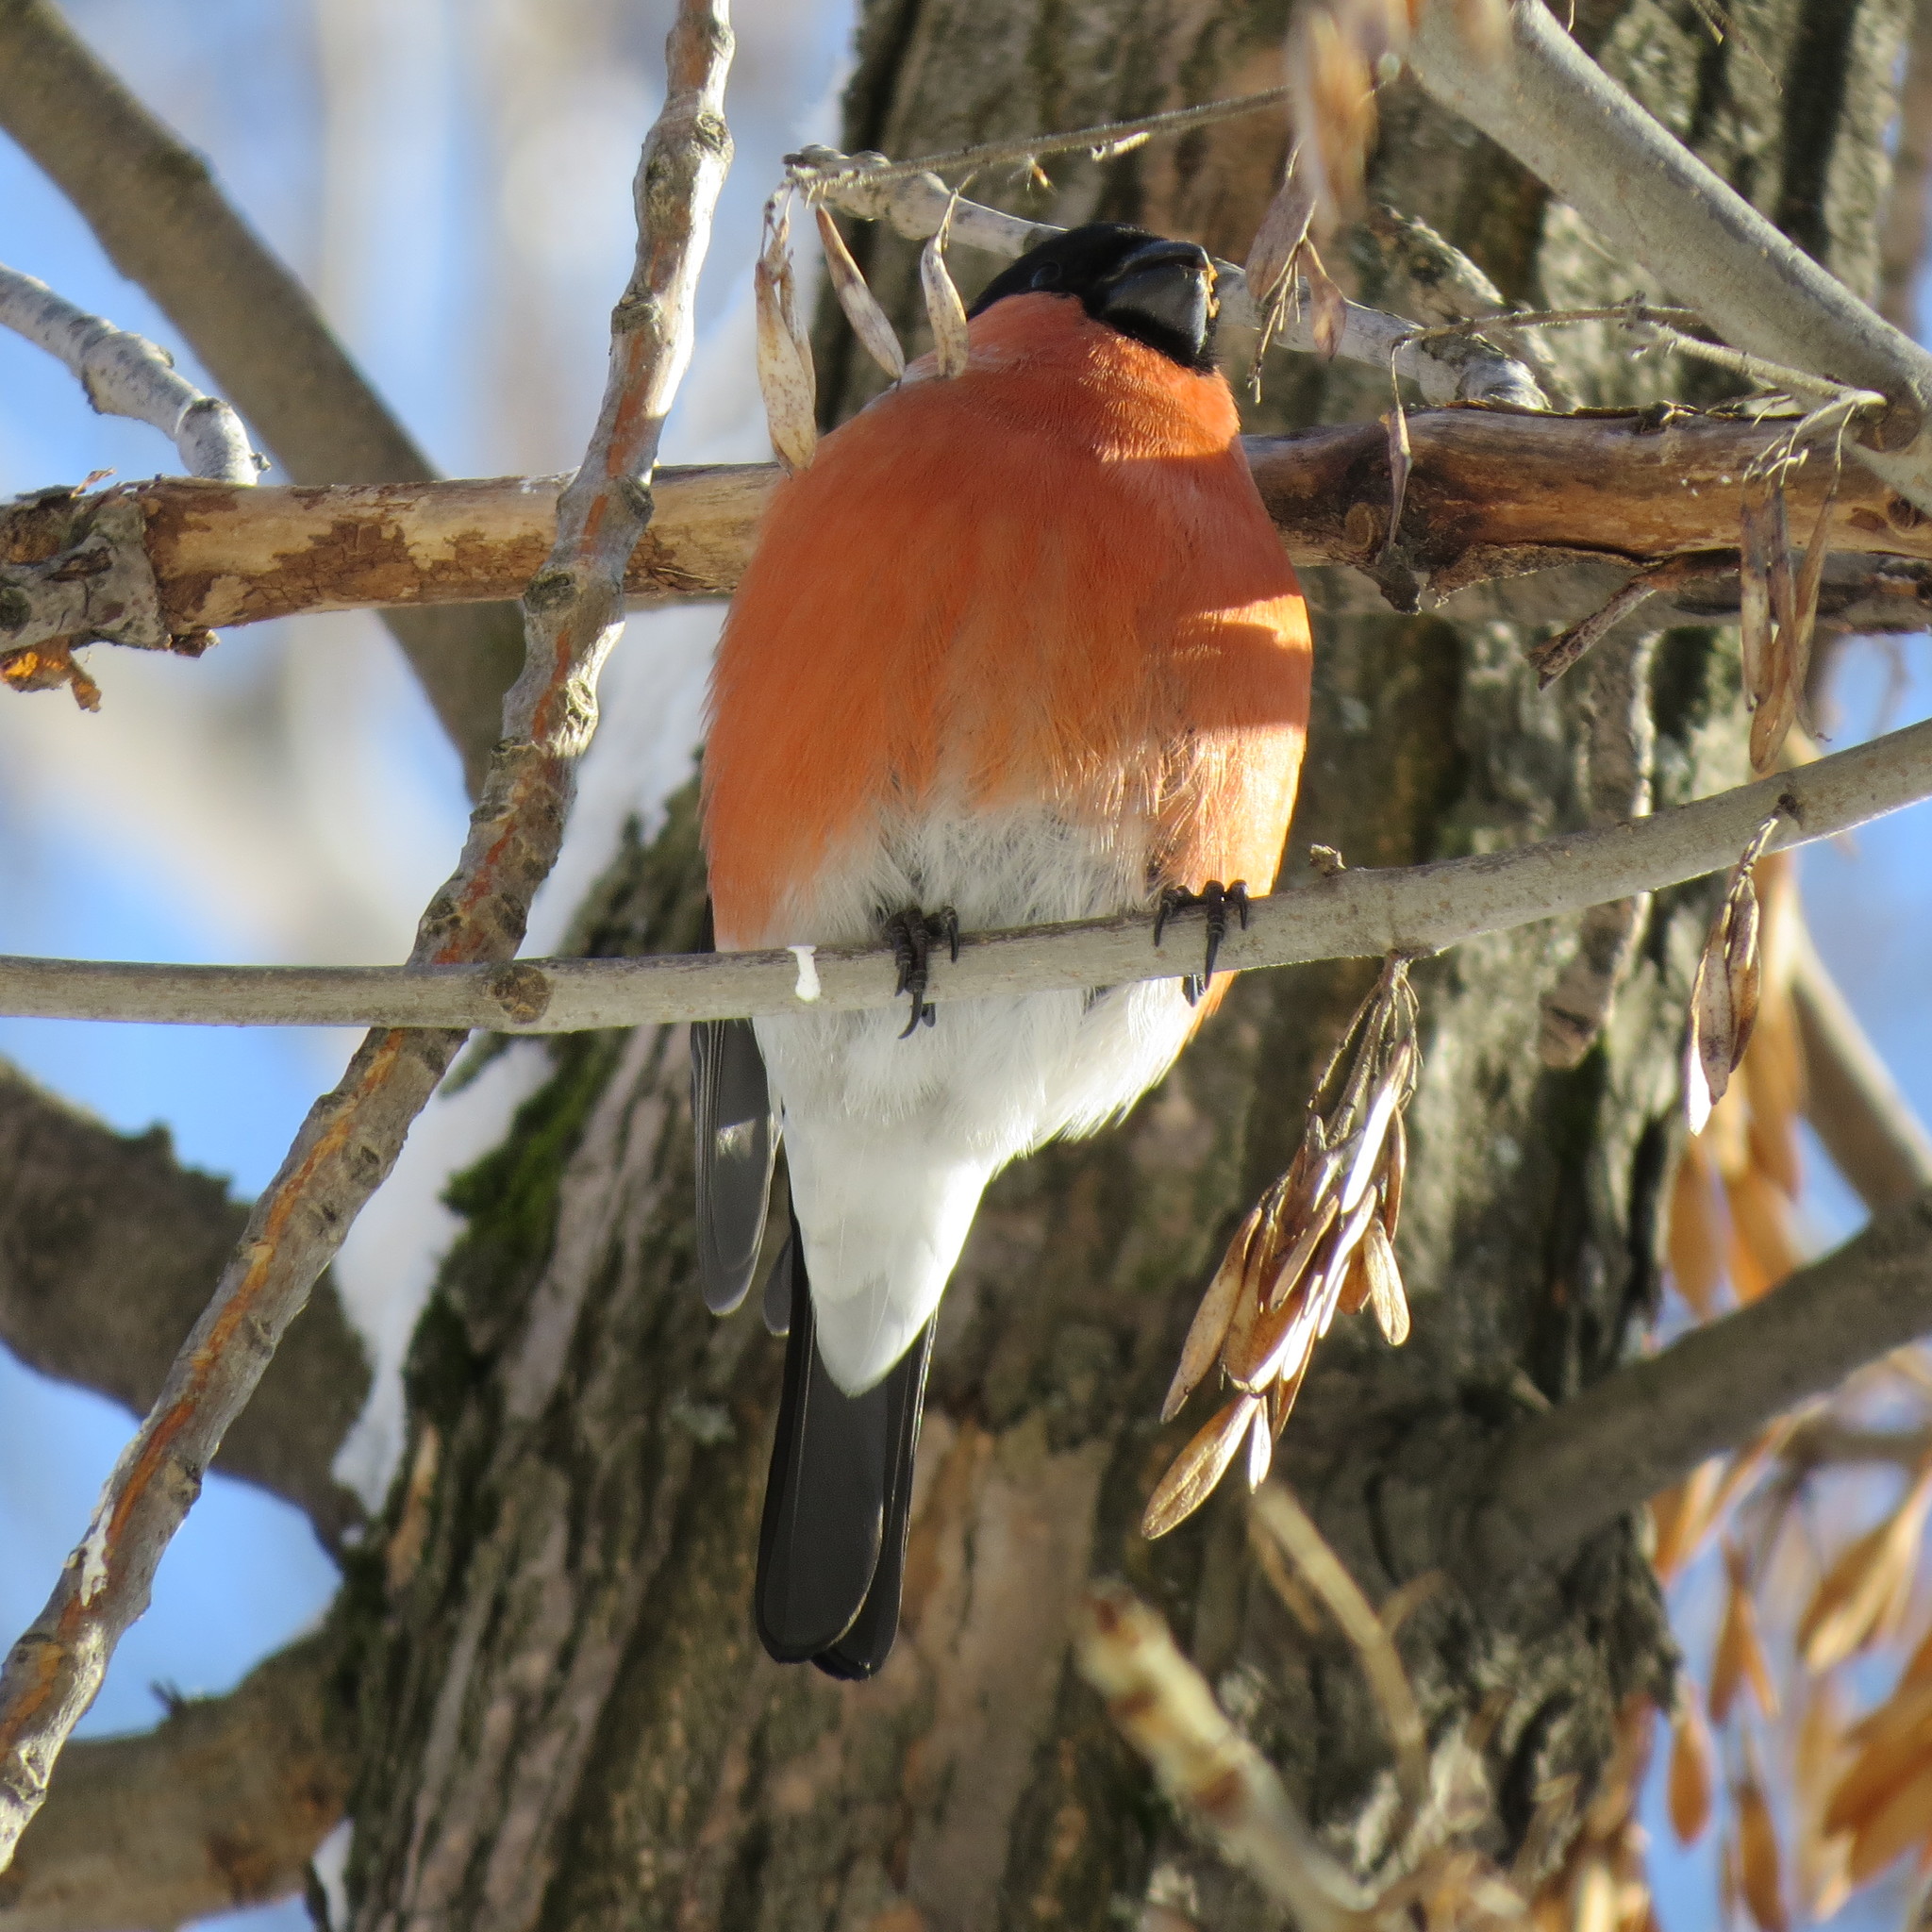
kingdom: Animalia
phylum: Chordata
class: Aves
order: Passeriformes
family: Fringillidae
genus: Pyrrhula
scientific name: Pyrrhula pyrrhula
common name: Eurasian bullfinch
